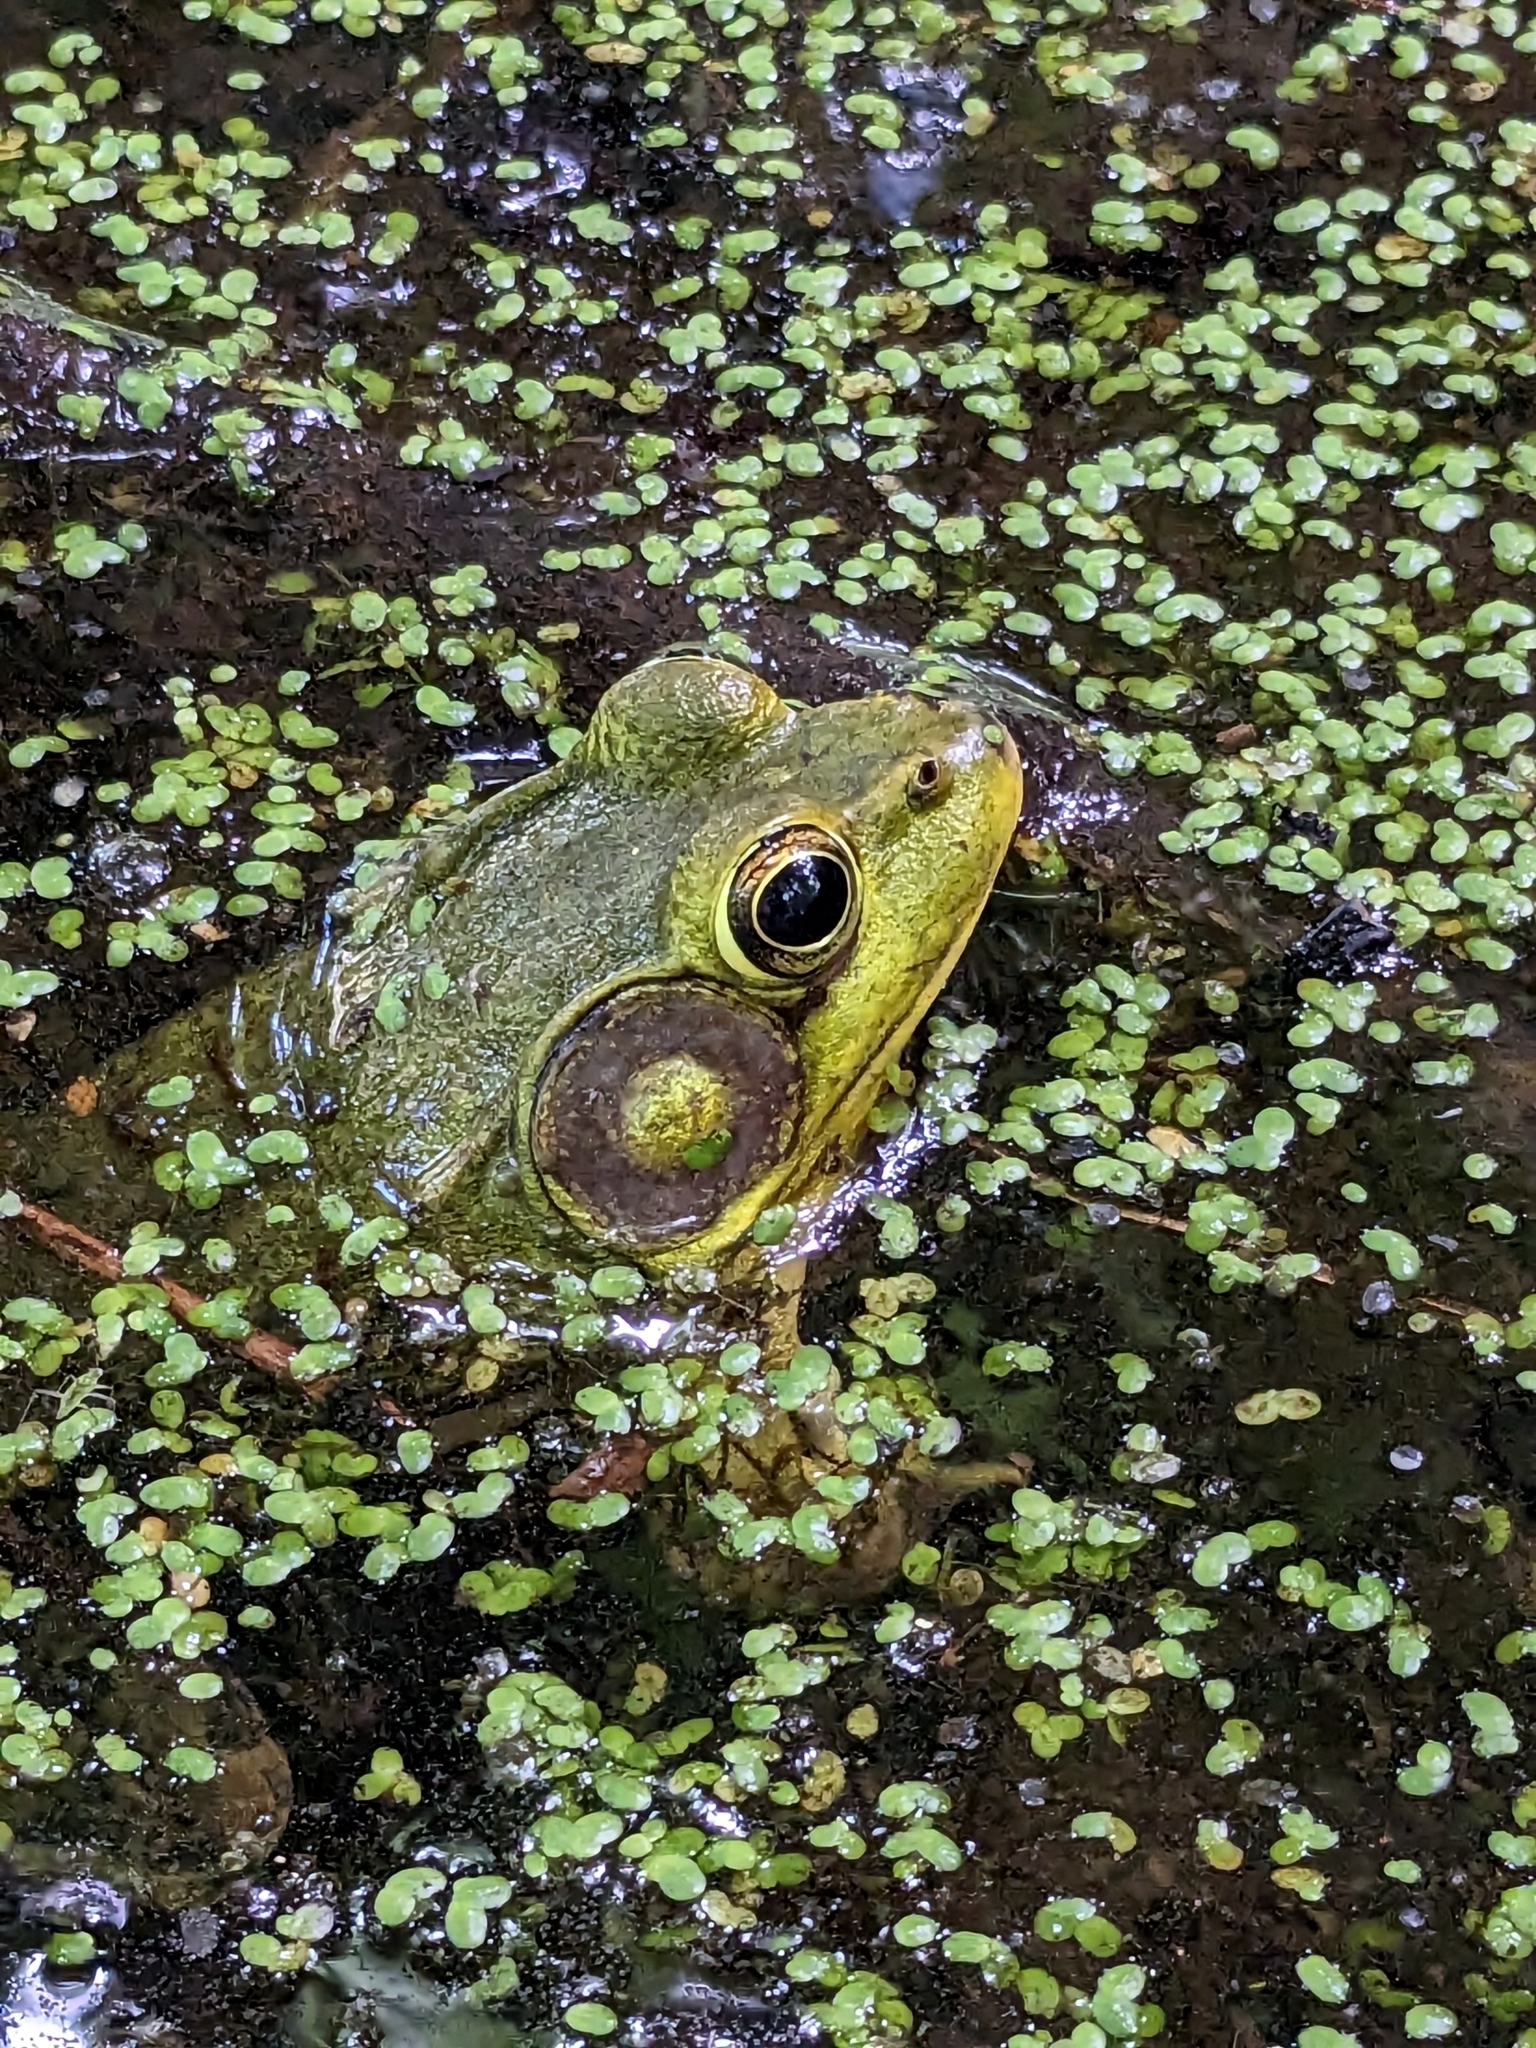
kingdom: Animalia
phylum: Chordata
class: Amphibia
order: Anura
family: Ranidae
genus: Lithobates
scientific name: Lithobates clamitans
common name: Green frog
